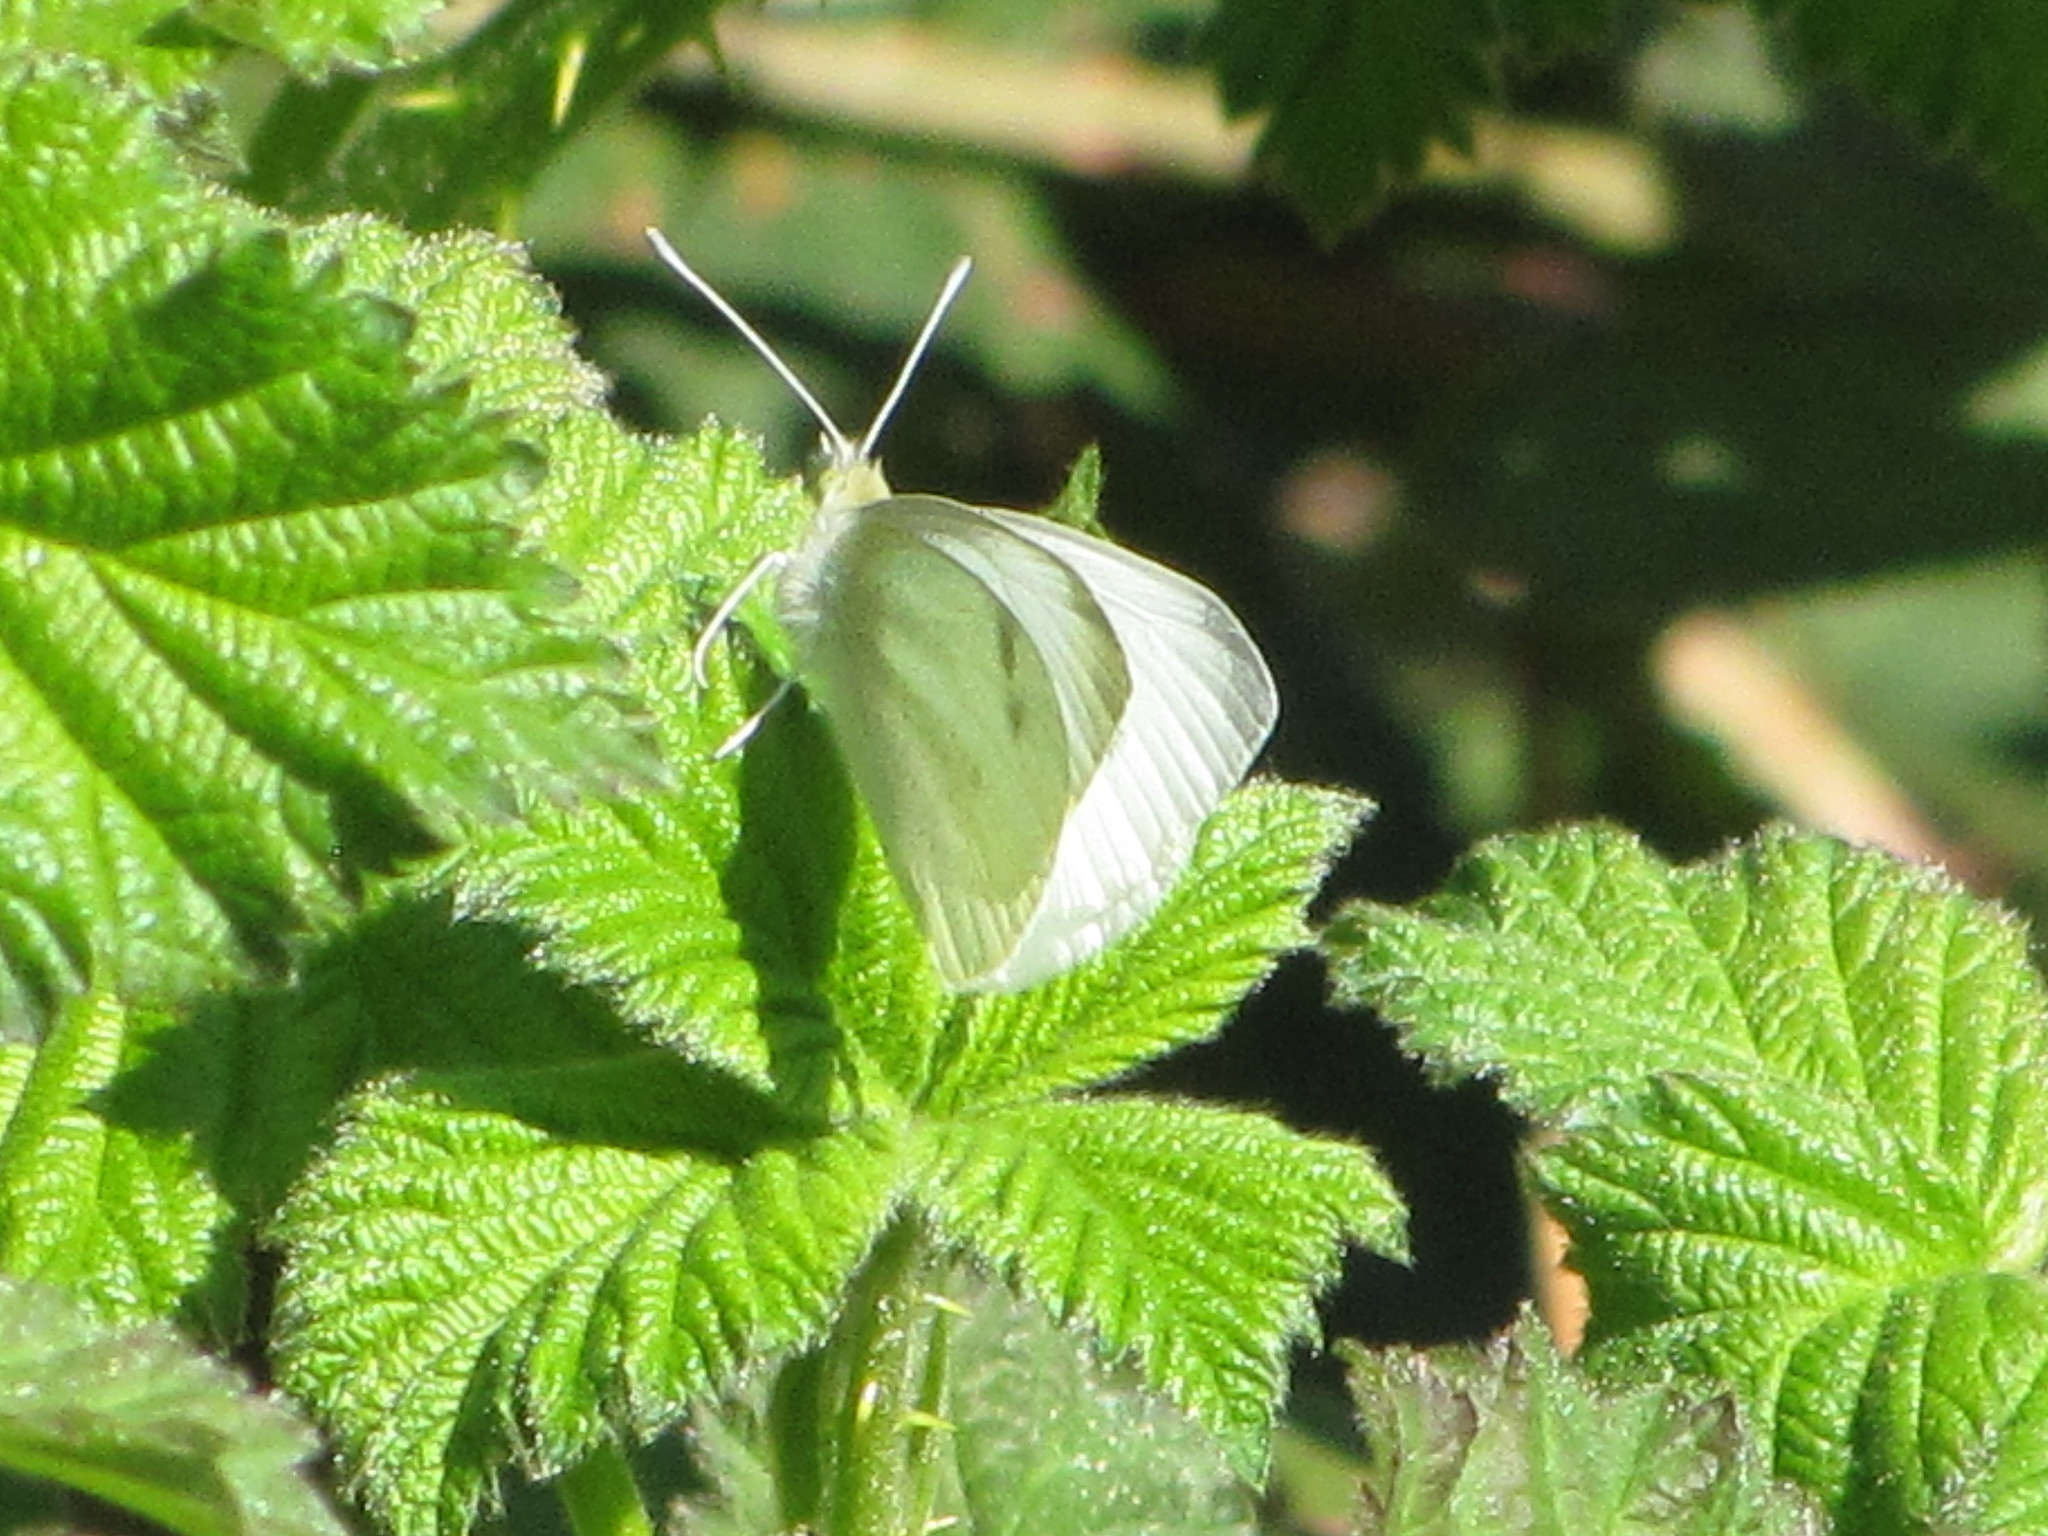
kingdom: Animalia
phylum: Arthropoda
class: Insecta
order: Lepidoptera
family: Pieridae
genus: Pieris
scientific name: Pieris rapae
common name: Small white
